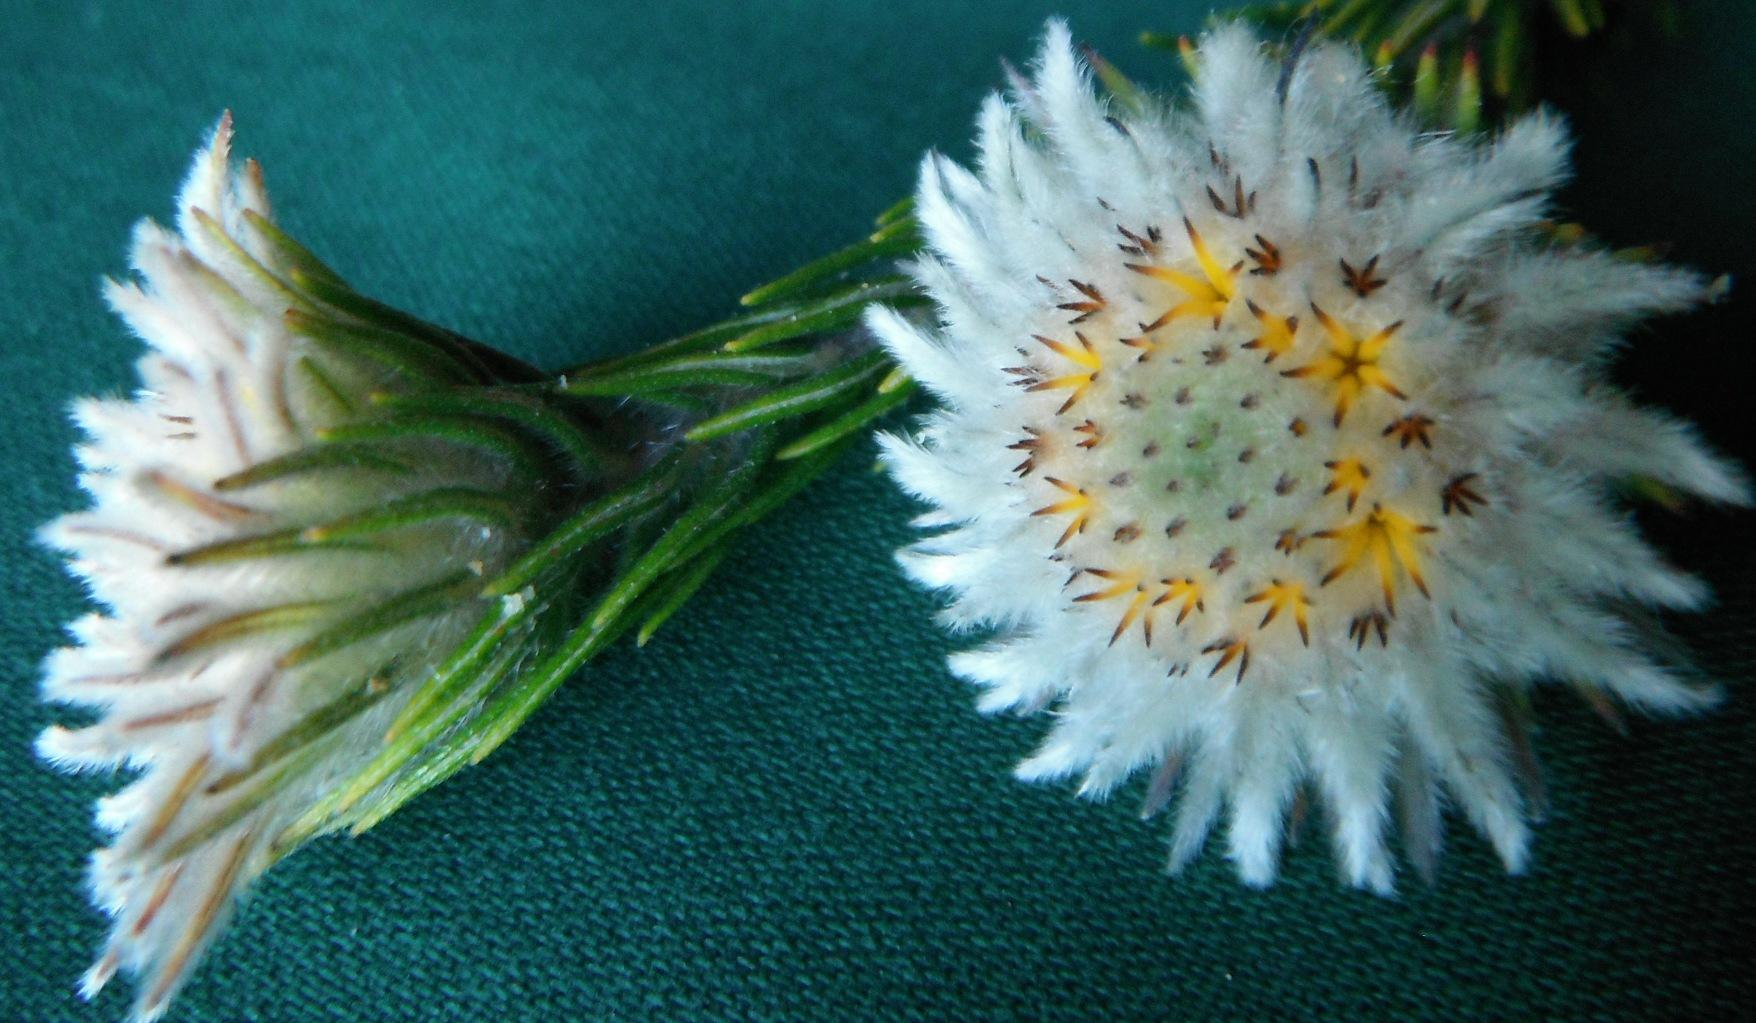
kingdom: Plantae
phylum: Tracheophyta
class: Magnoliopsida
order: Rosales
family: Rhamnaceae
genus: Phylica
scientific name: Phylica calcarata
